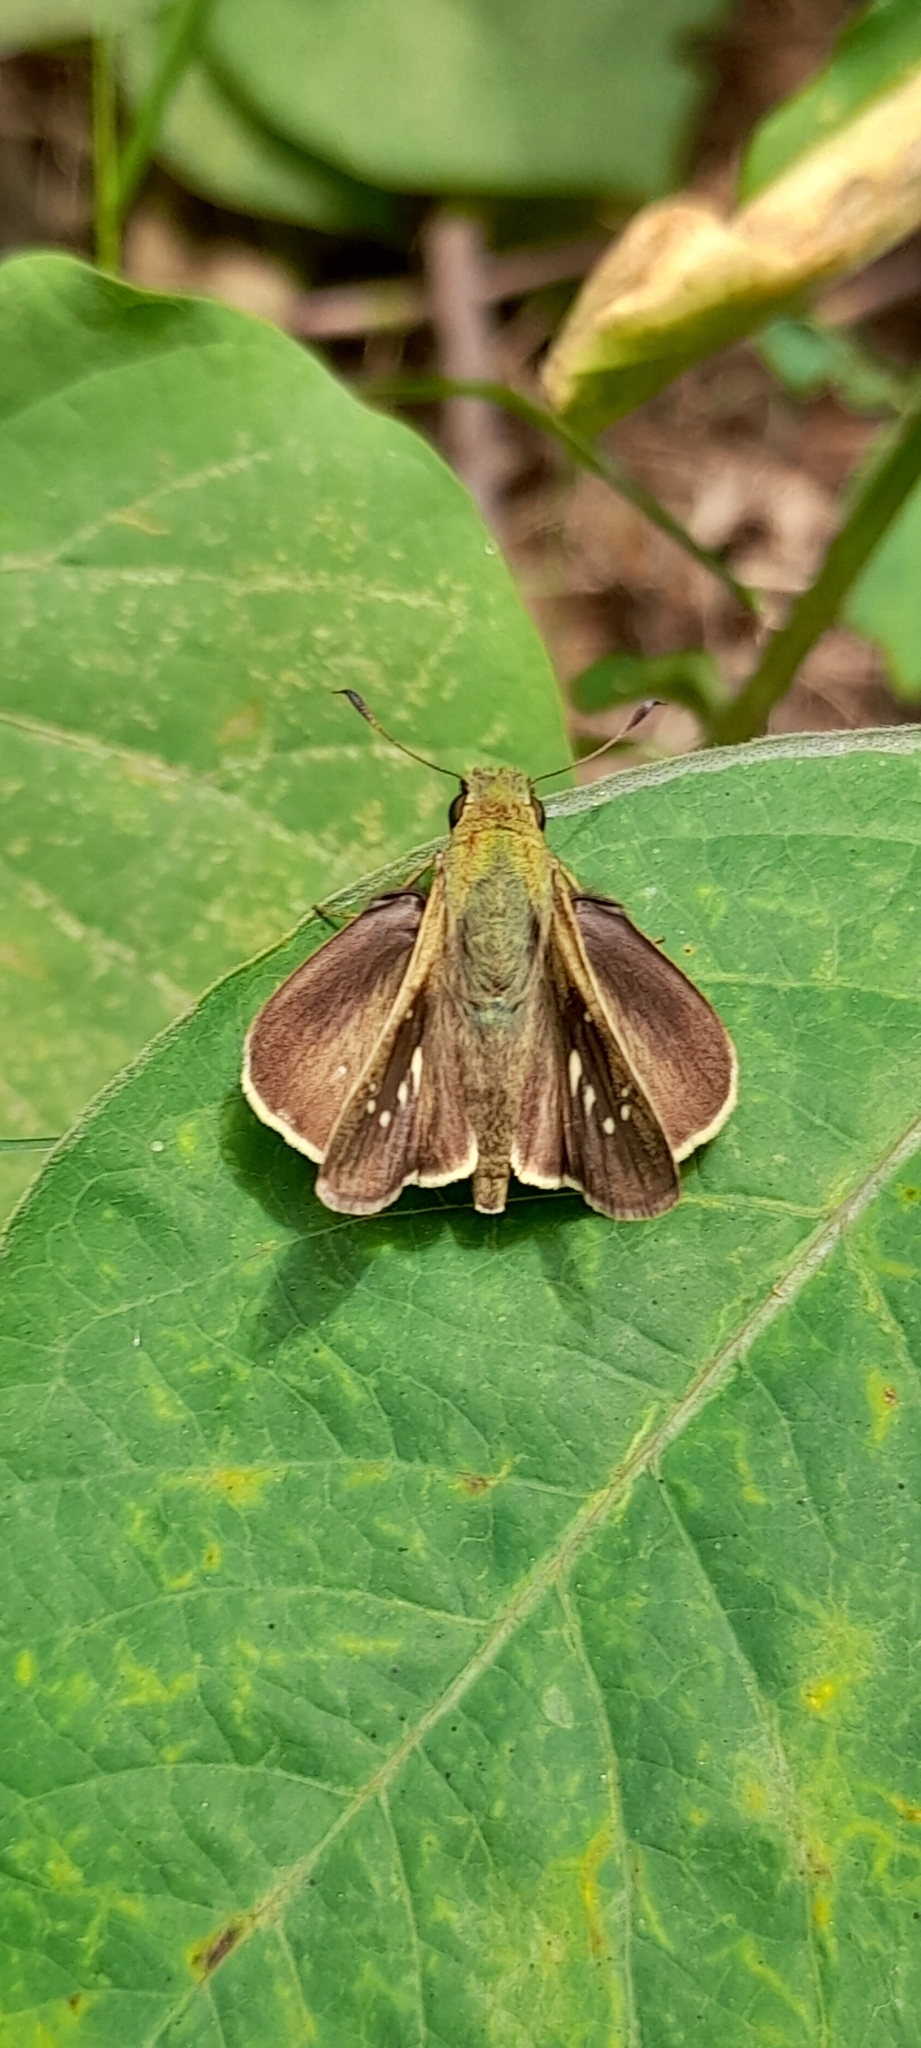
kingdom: Animalia
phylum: Arthropoda
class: Insecta
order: Lepidoptera
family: Hesperiidae
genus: Borbo
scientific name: Borbo cinnara
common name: Formosan swift
